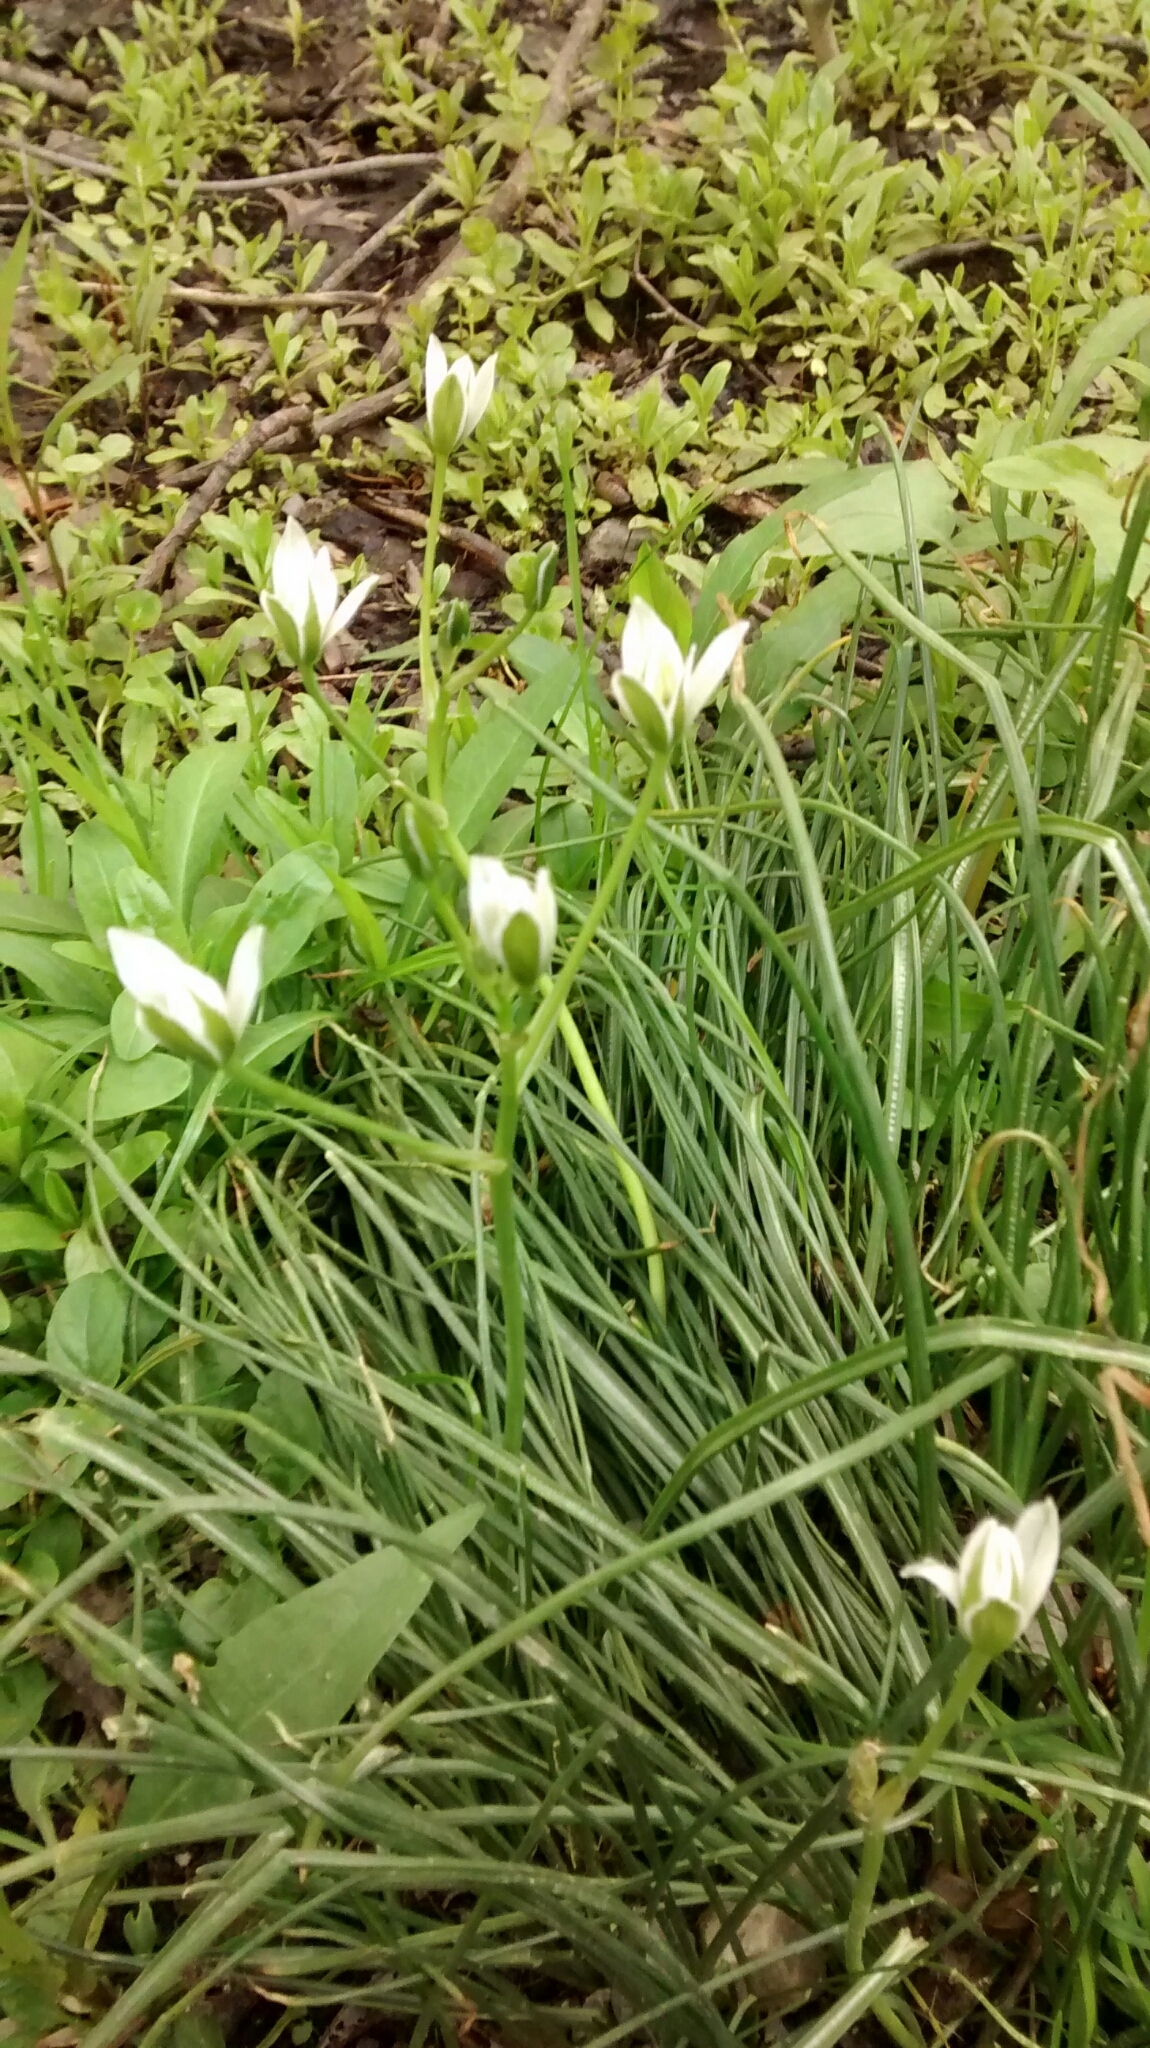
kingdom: Plantae
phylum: Tracheophyta
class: Liliopsida
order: Asparagales
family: Asparagaceae
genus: Ornithogalum
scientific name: Ornithogalum umbellatum
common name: Garden star-of-bethlehem
